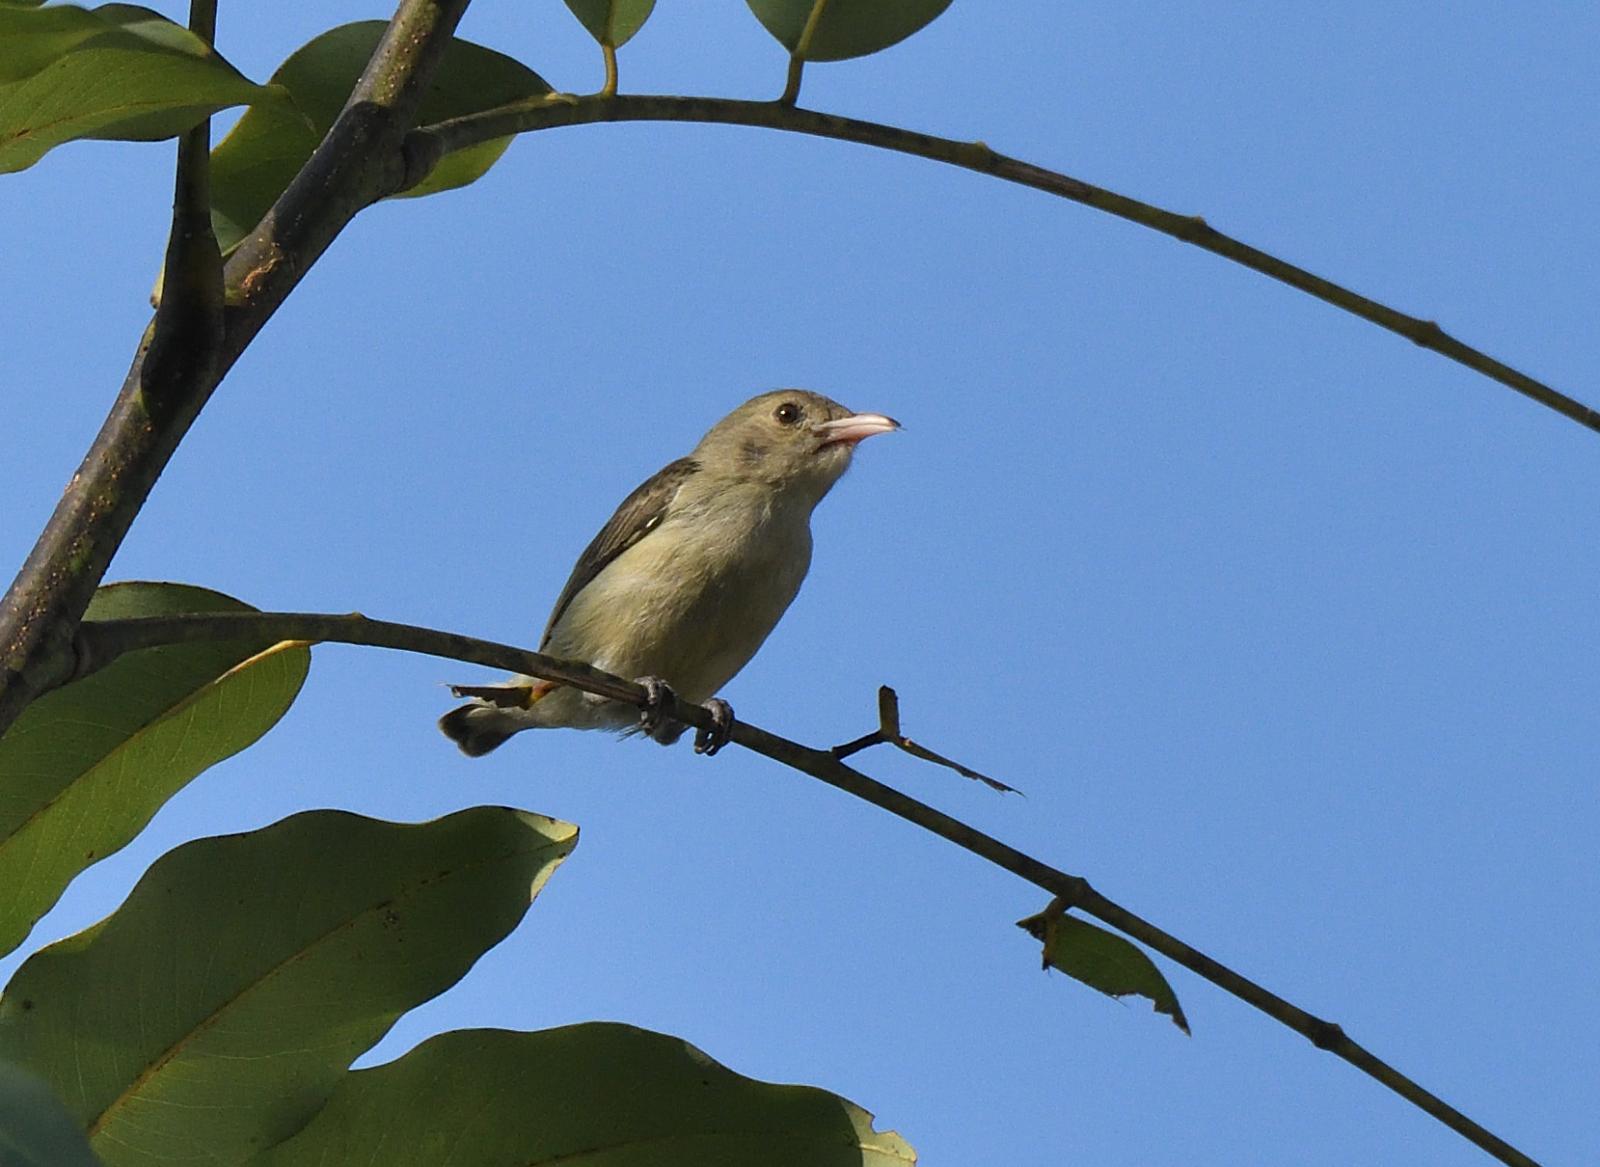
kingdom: Animalia
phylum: Chordata
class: Aves
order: Passeriformes
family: Dicaeidae
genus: Dicaeum
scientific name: Dicaeum erythrorhynchos
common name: Pale-billed flowerpecker
